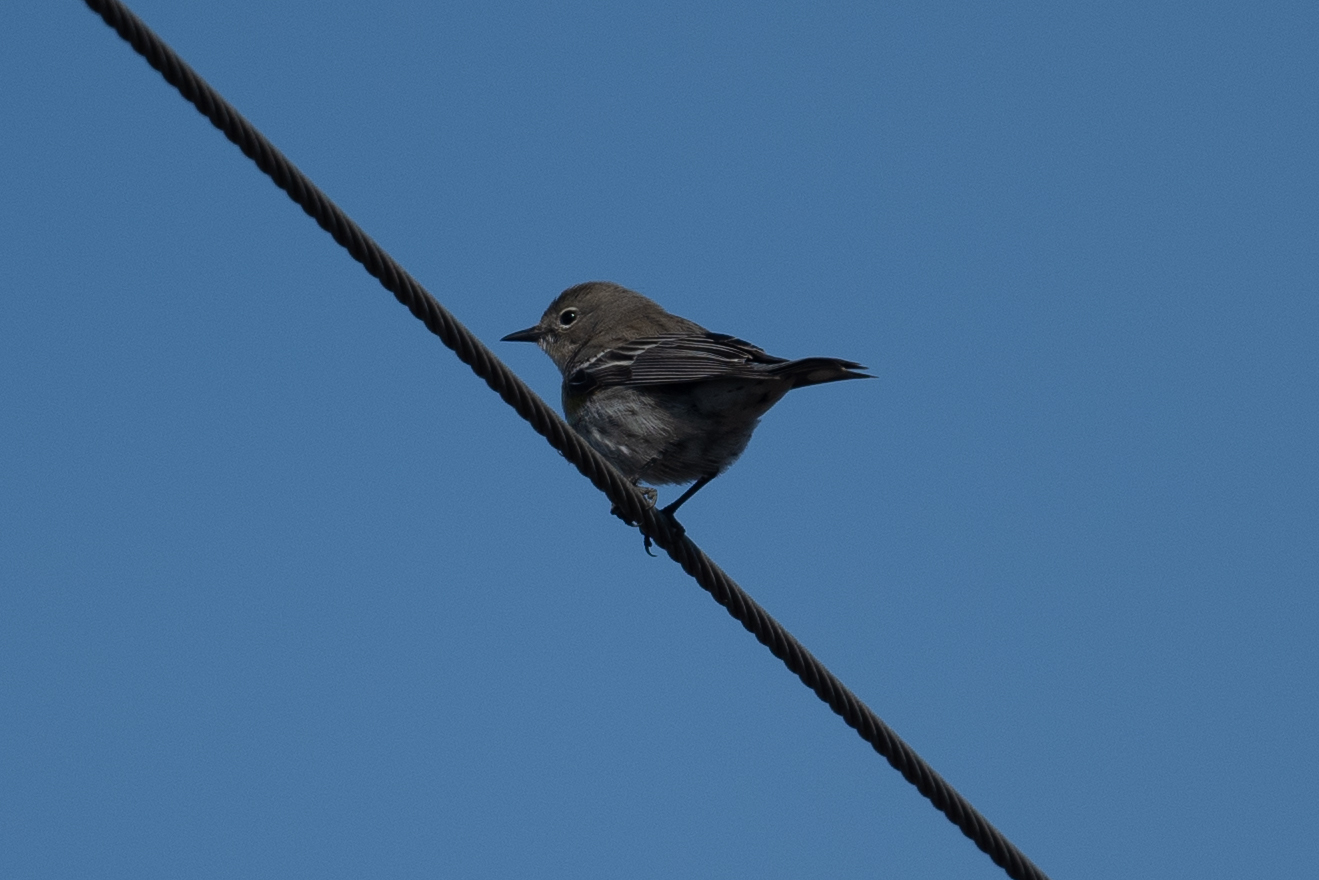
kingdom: Animalia
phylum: Chordata
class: Aves
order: Passeriformes
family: Parulidae
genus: Setophaga
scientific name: Setophaga coronata
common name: Myrtle warbler
